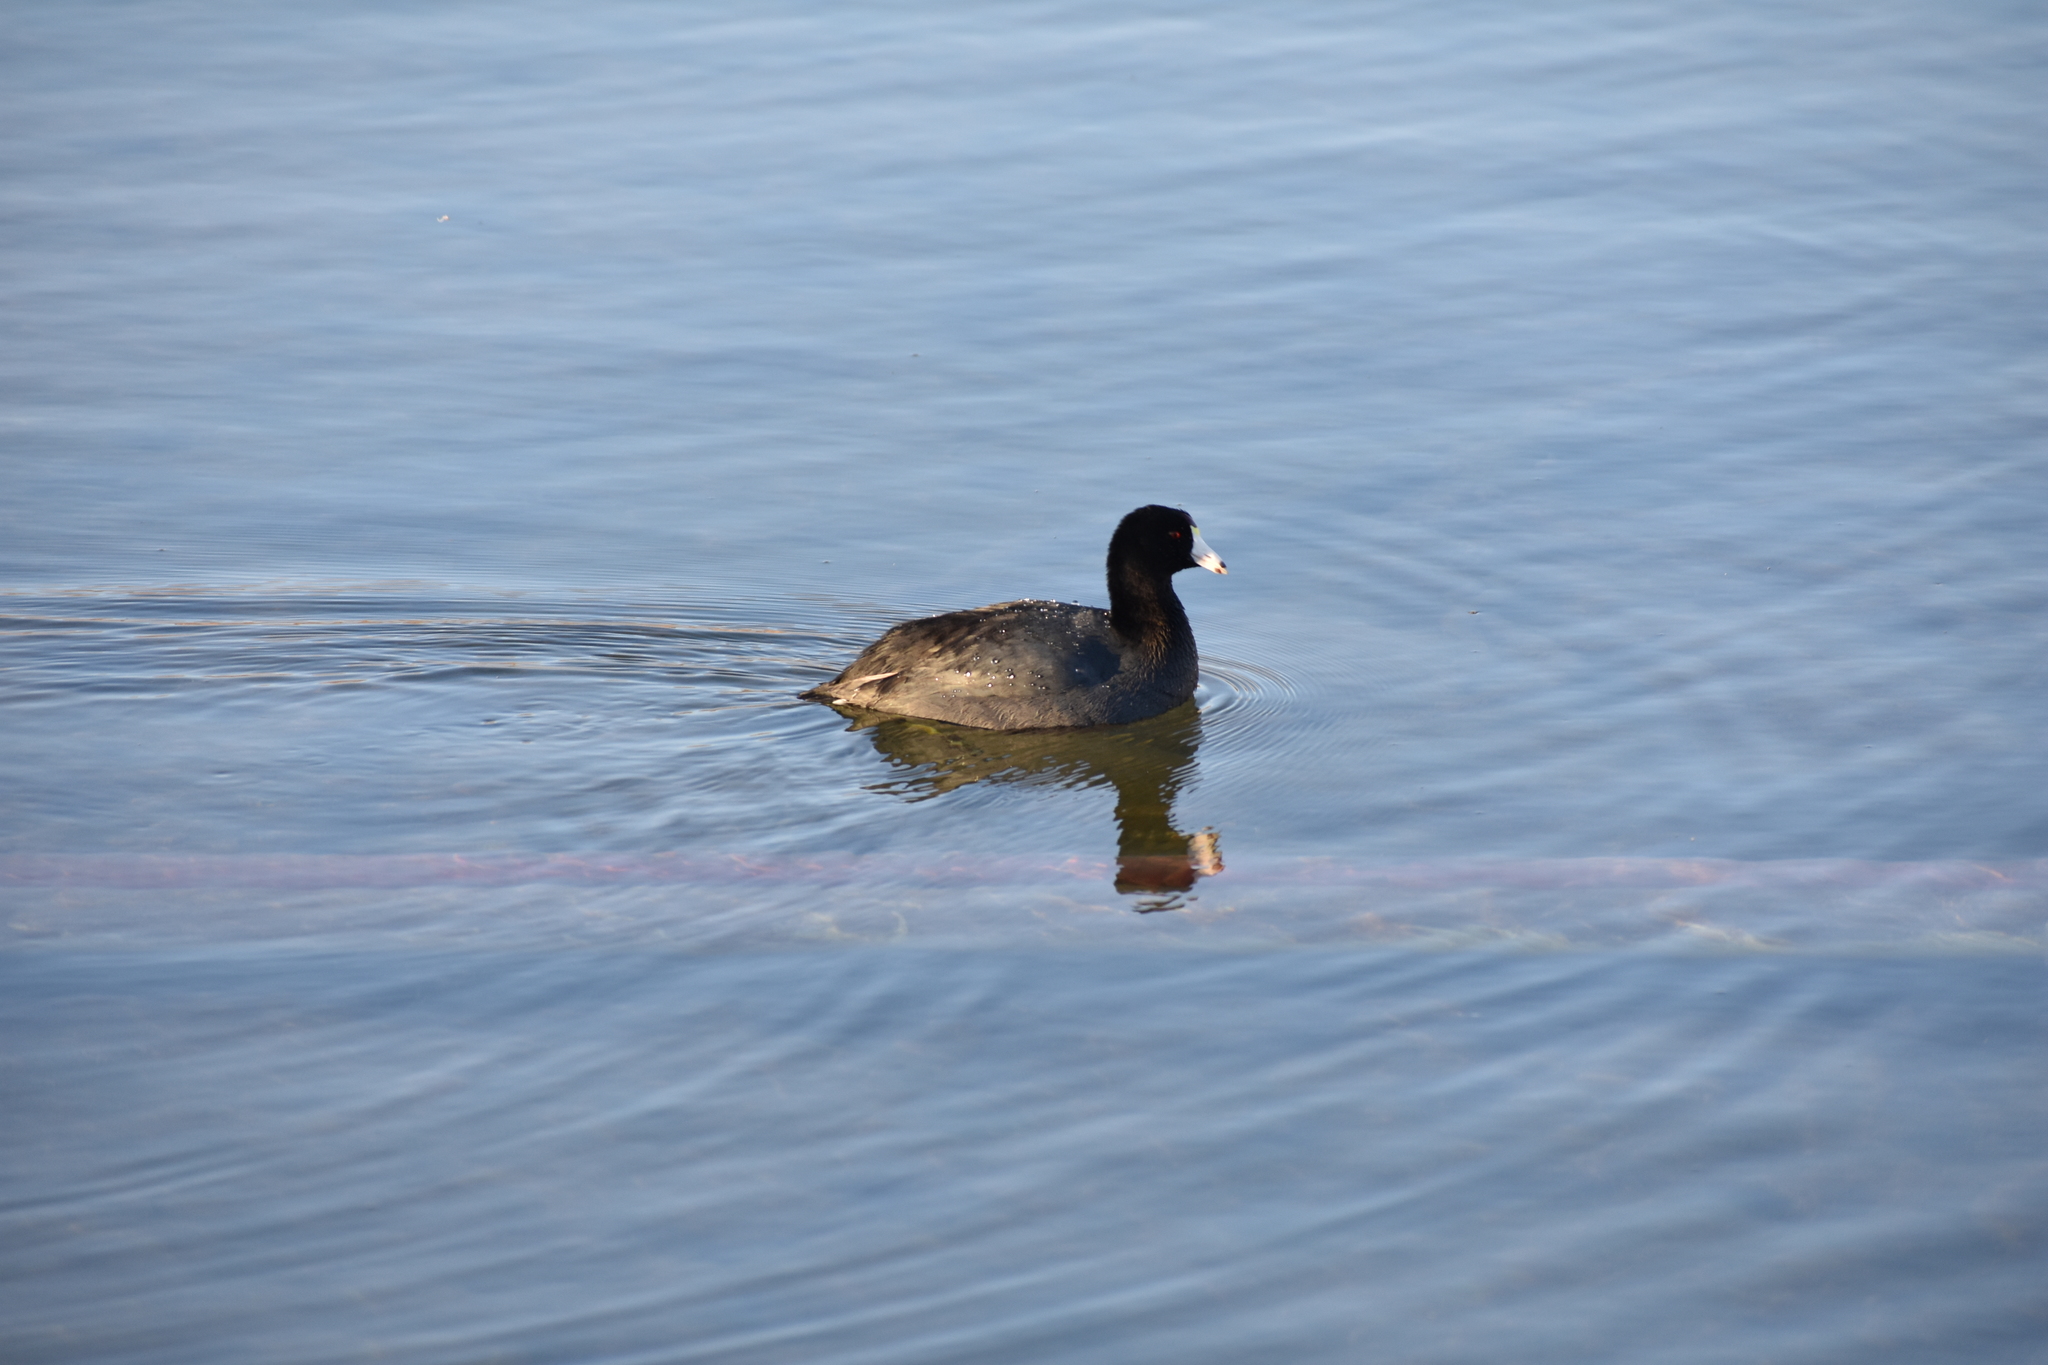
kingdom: Animalia
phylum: Chordata
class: Aves
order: Gruiformes
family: Rallidae
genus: Fulica
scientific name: Fulica americana
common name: American coot
